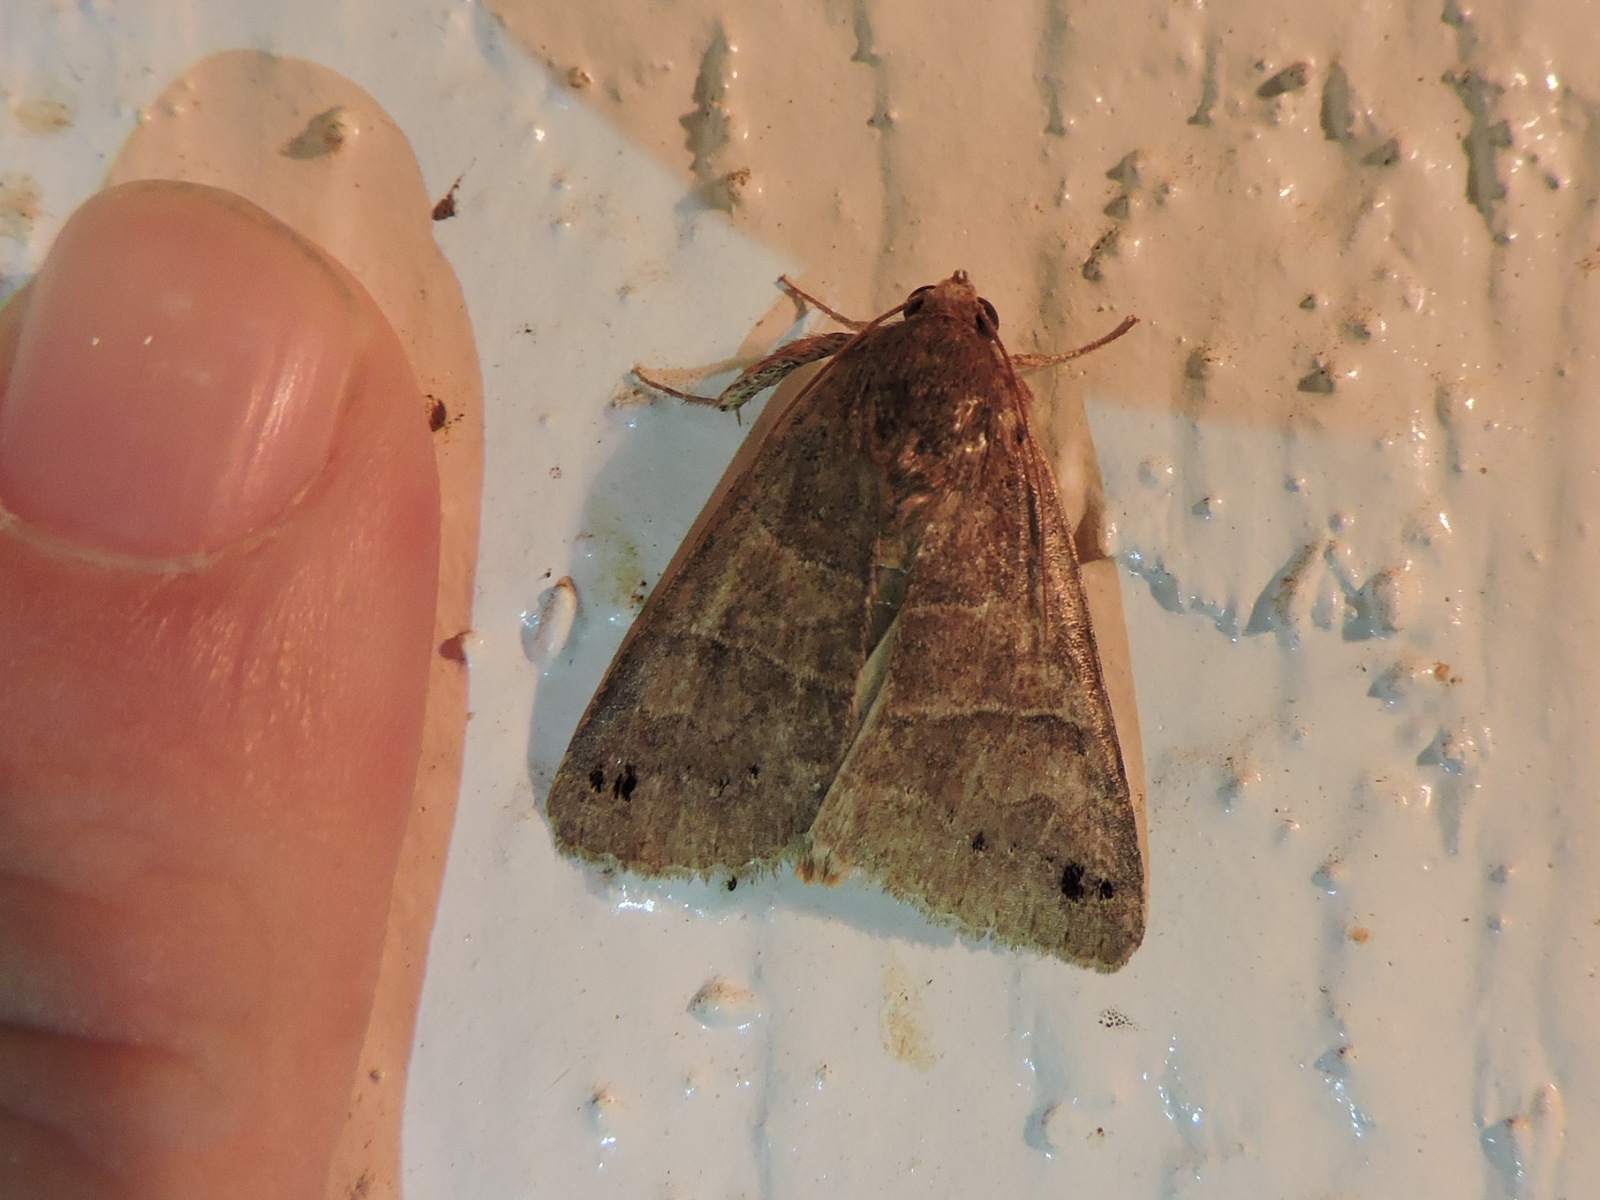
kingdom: Animalia
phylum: Arthropoda
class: Insecta
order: Lepidoptera
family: Erebidae
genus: Cissusa
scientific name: Cissusa spadix
